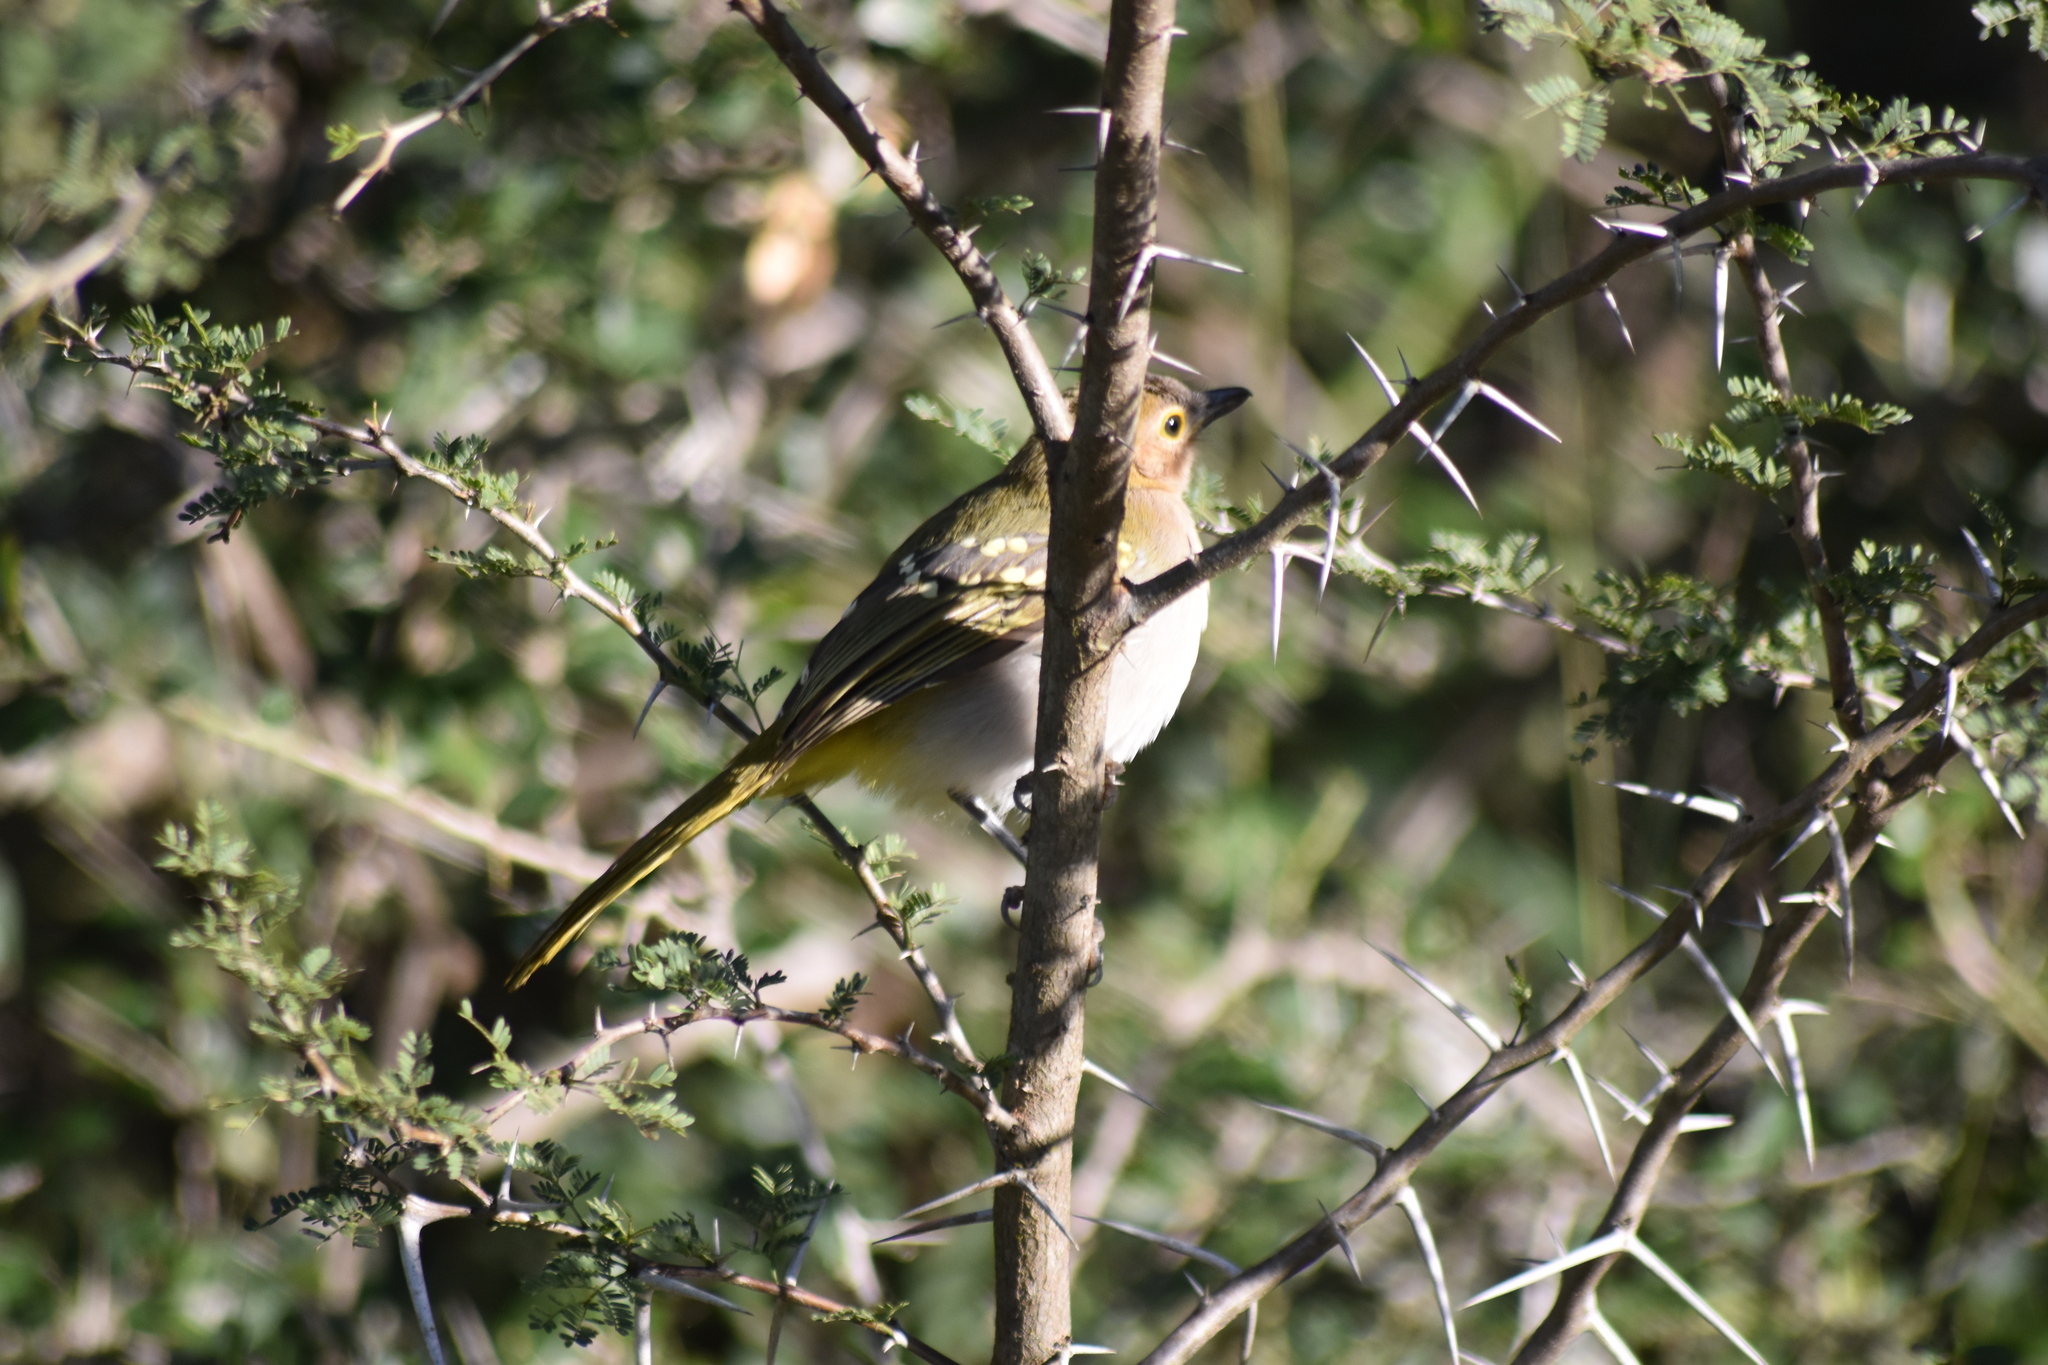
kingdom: Animalia
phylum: Chordata
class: Aves
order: Passeriformes
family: Nicatoridae
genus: Nicator
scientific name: Nicator gularis
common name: Eastern nicator
